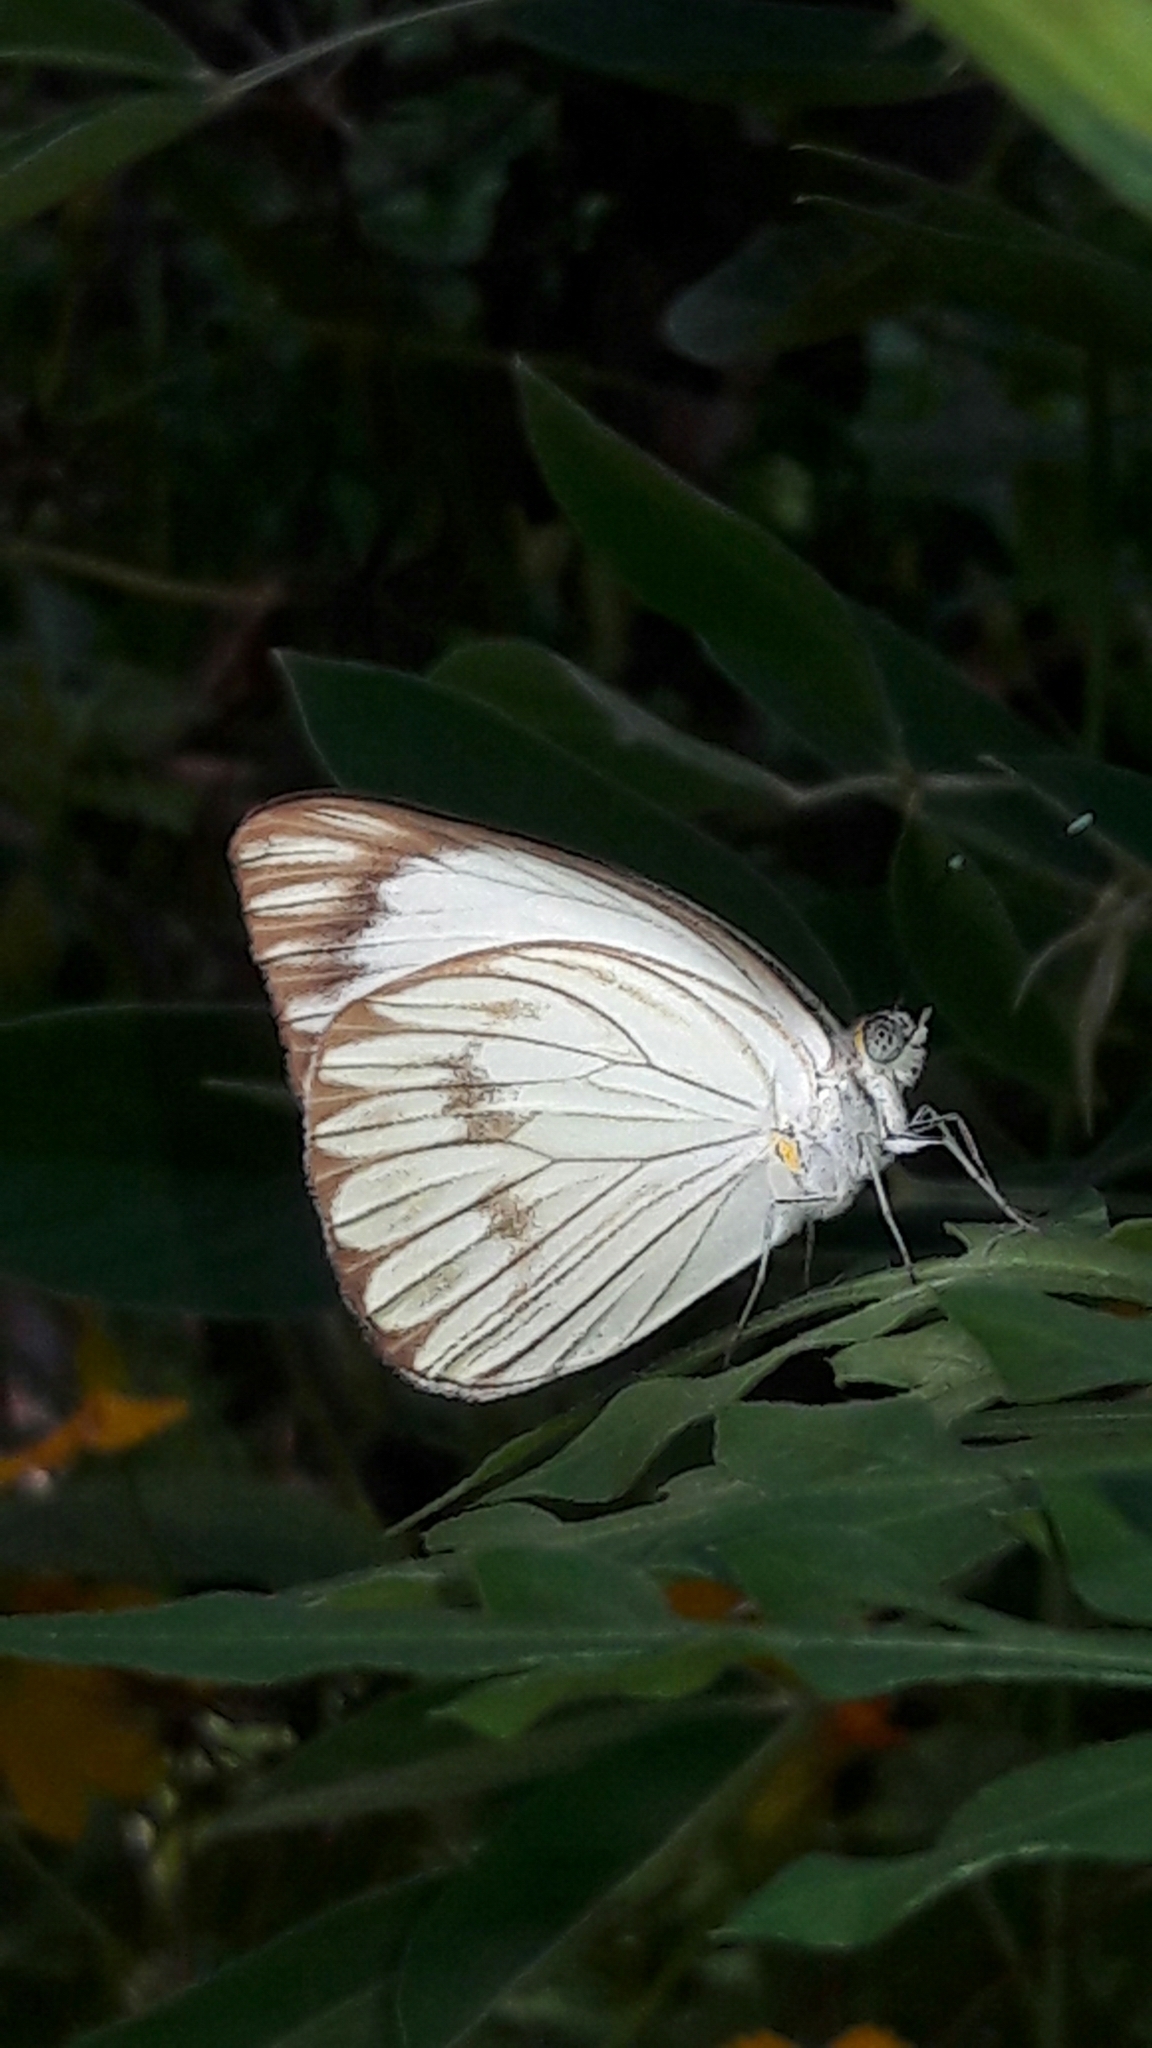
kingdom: Animalia
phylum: Arthropoda
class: Insecta
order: Lepidoptera
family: Pieridae
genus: Ascia
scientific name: Ascia monuste
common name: Great southern white
